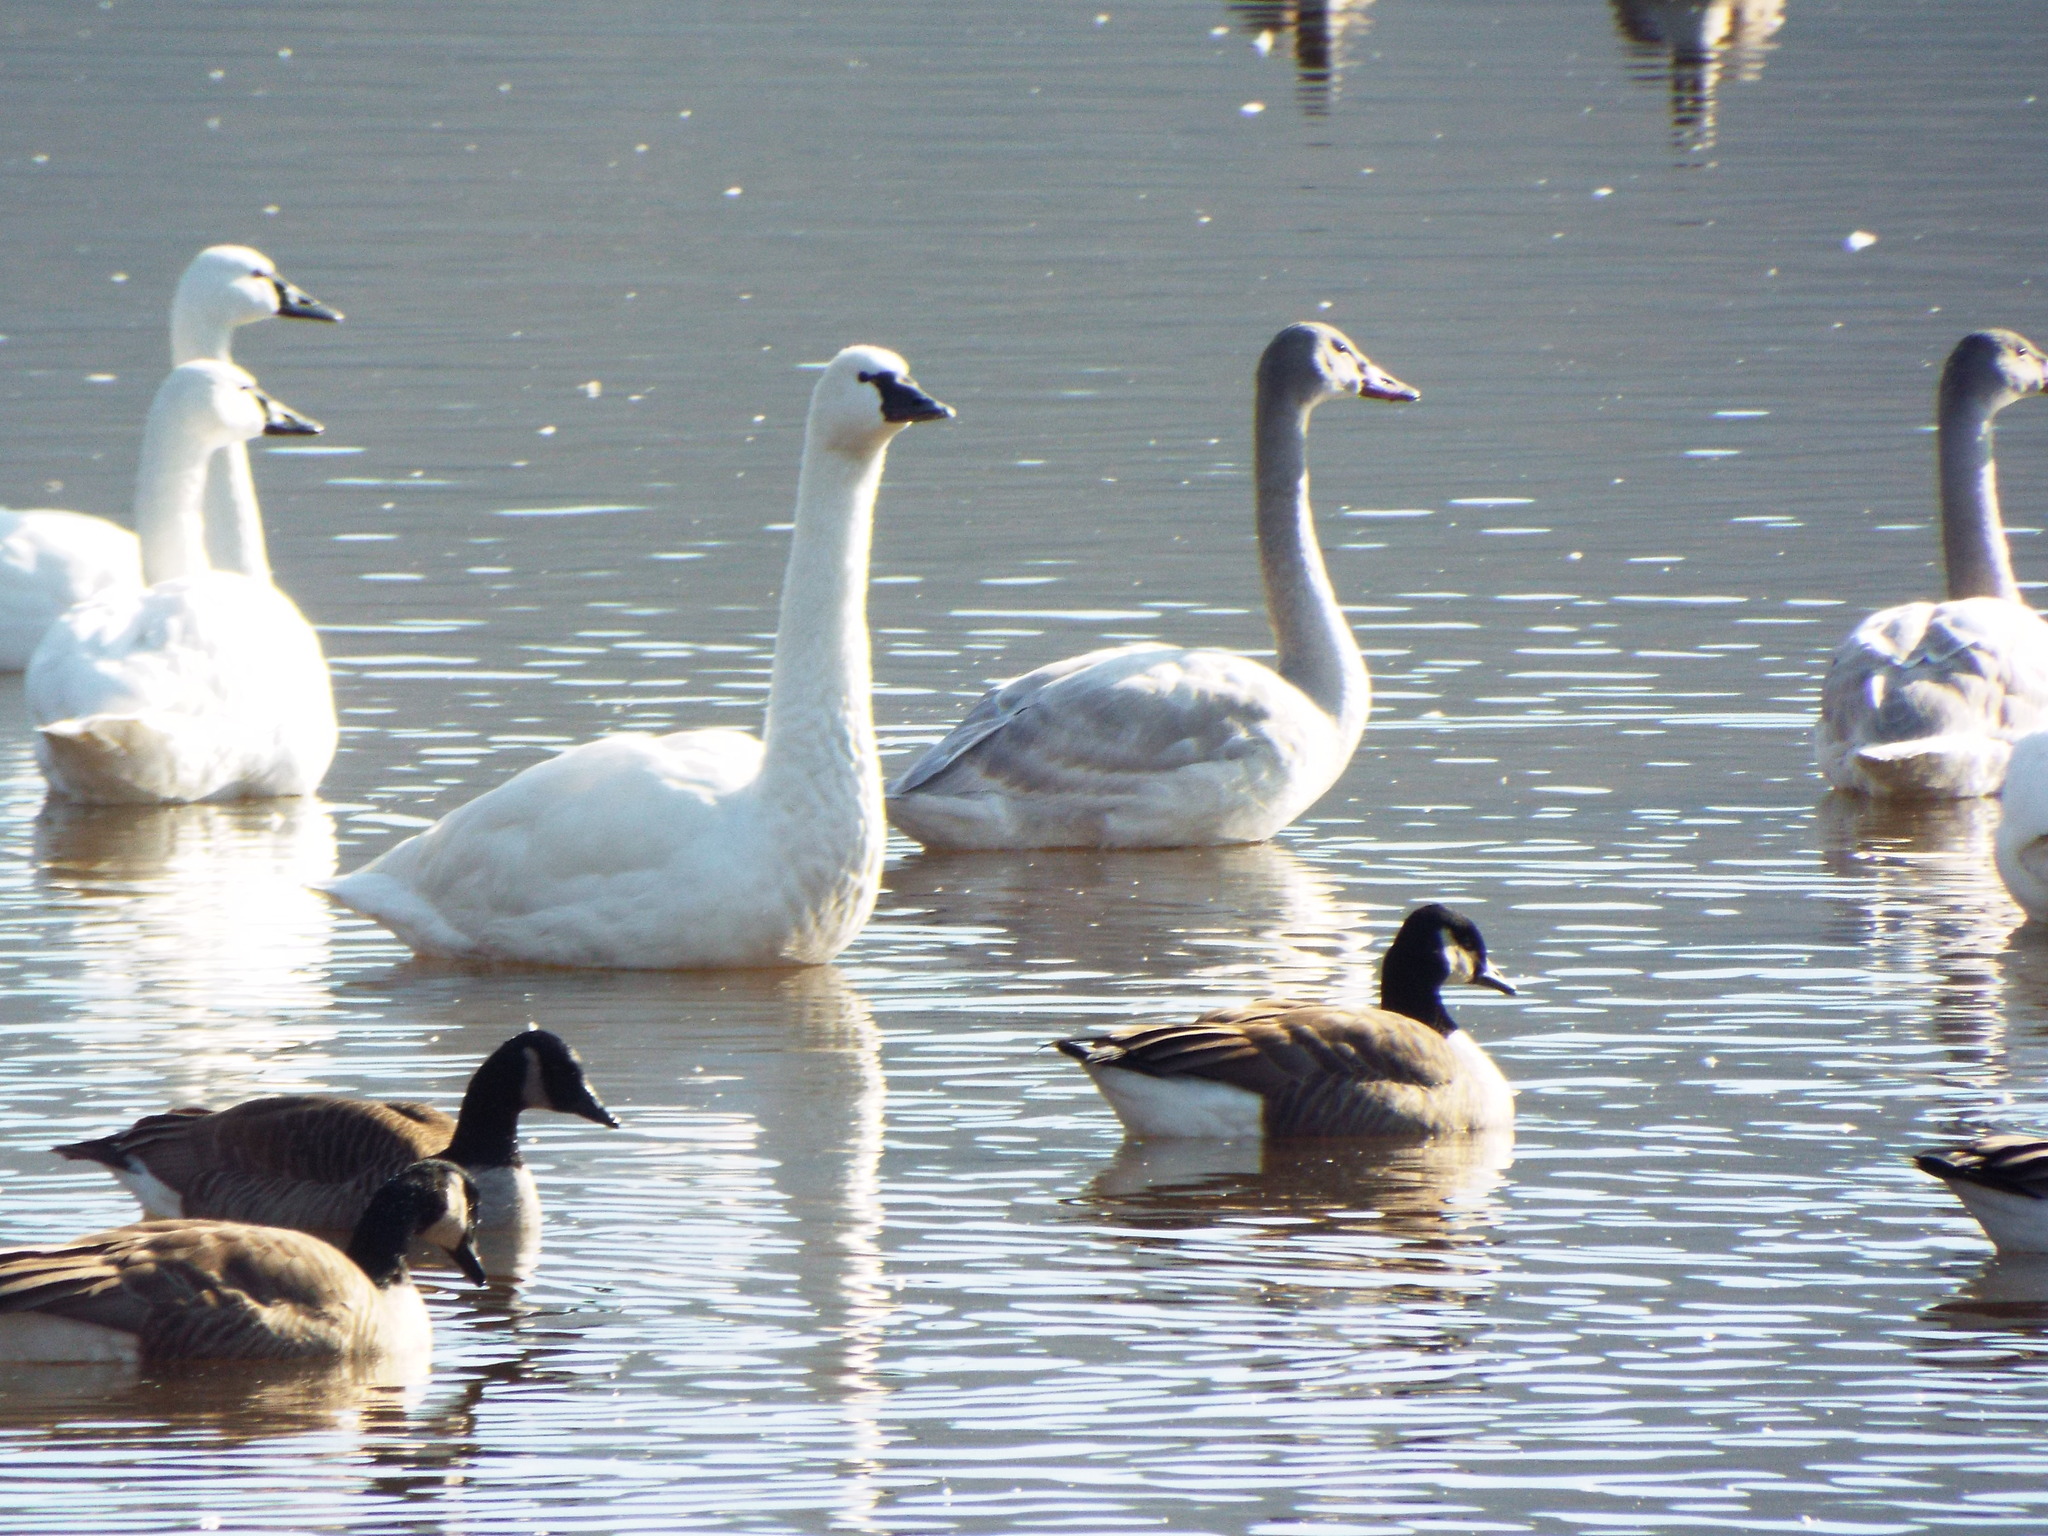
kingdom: Animalia
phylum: Chordata
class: Aves
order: Anseriformes
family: Anatidae
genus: Cygnus
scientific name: Cygnus columbianus
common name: Tundra swan
